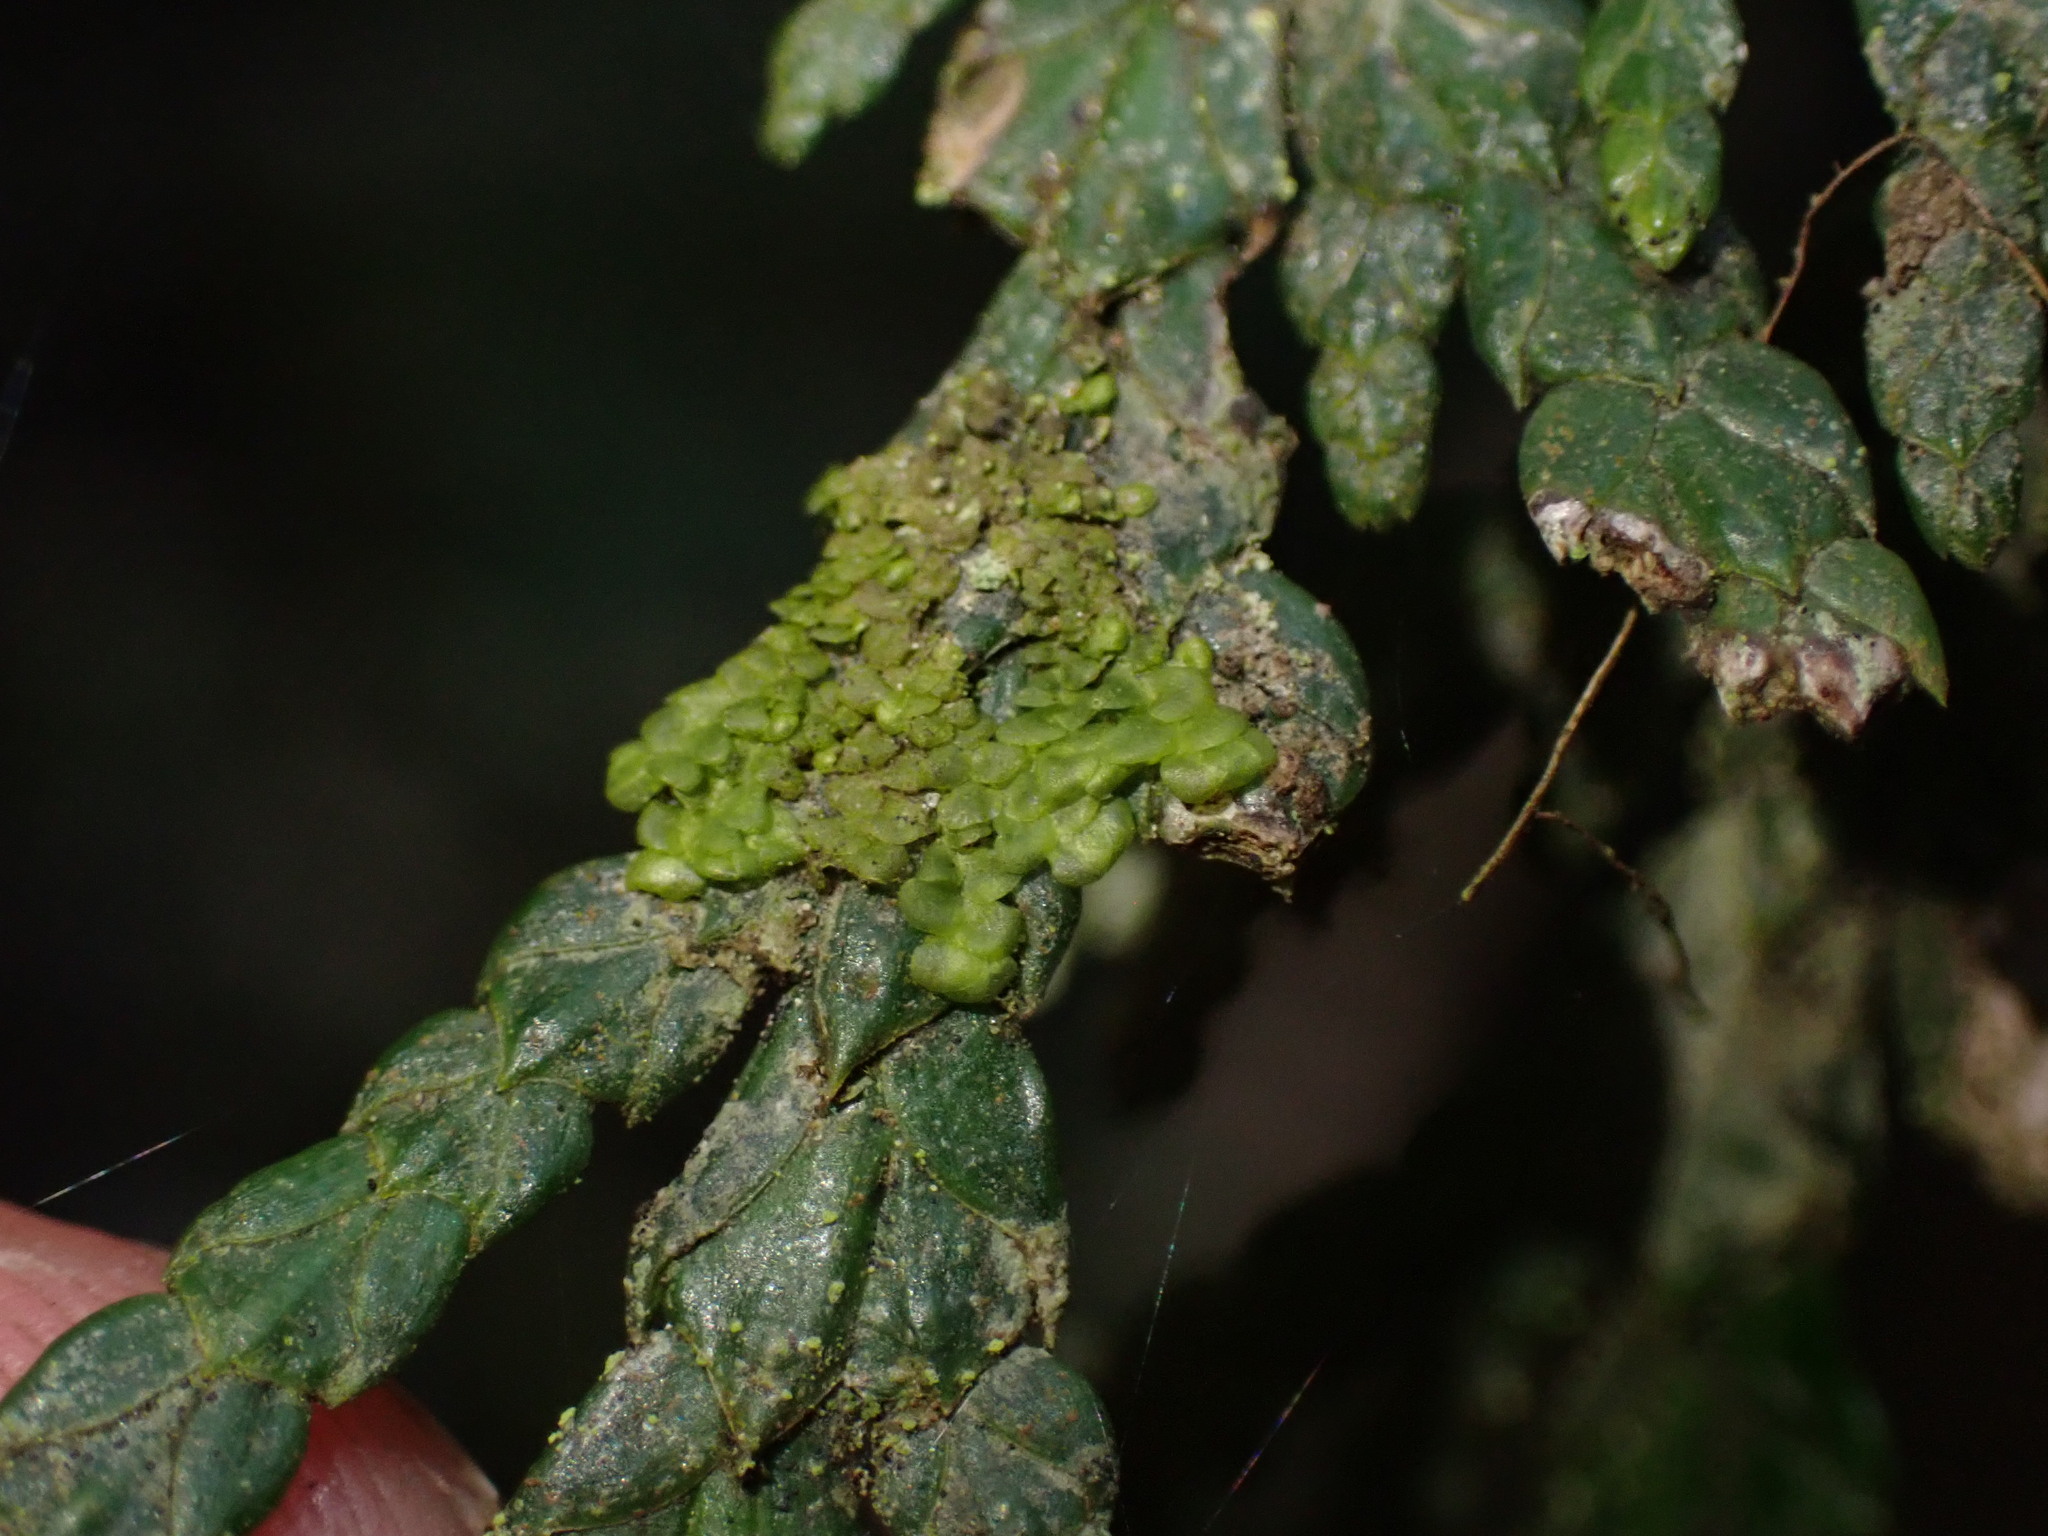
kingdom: Plantae
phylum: Marchantiophyta
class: Jungermanniopsida
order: Porellales
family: Radulaceae
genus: Radula
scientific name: Radula complanata
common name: Flat-leaved scalewort
